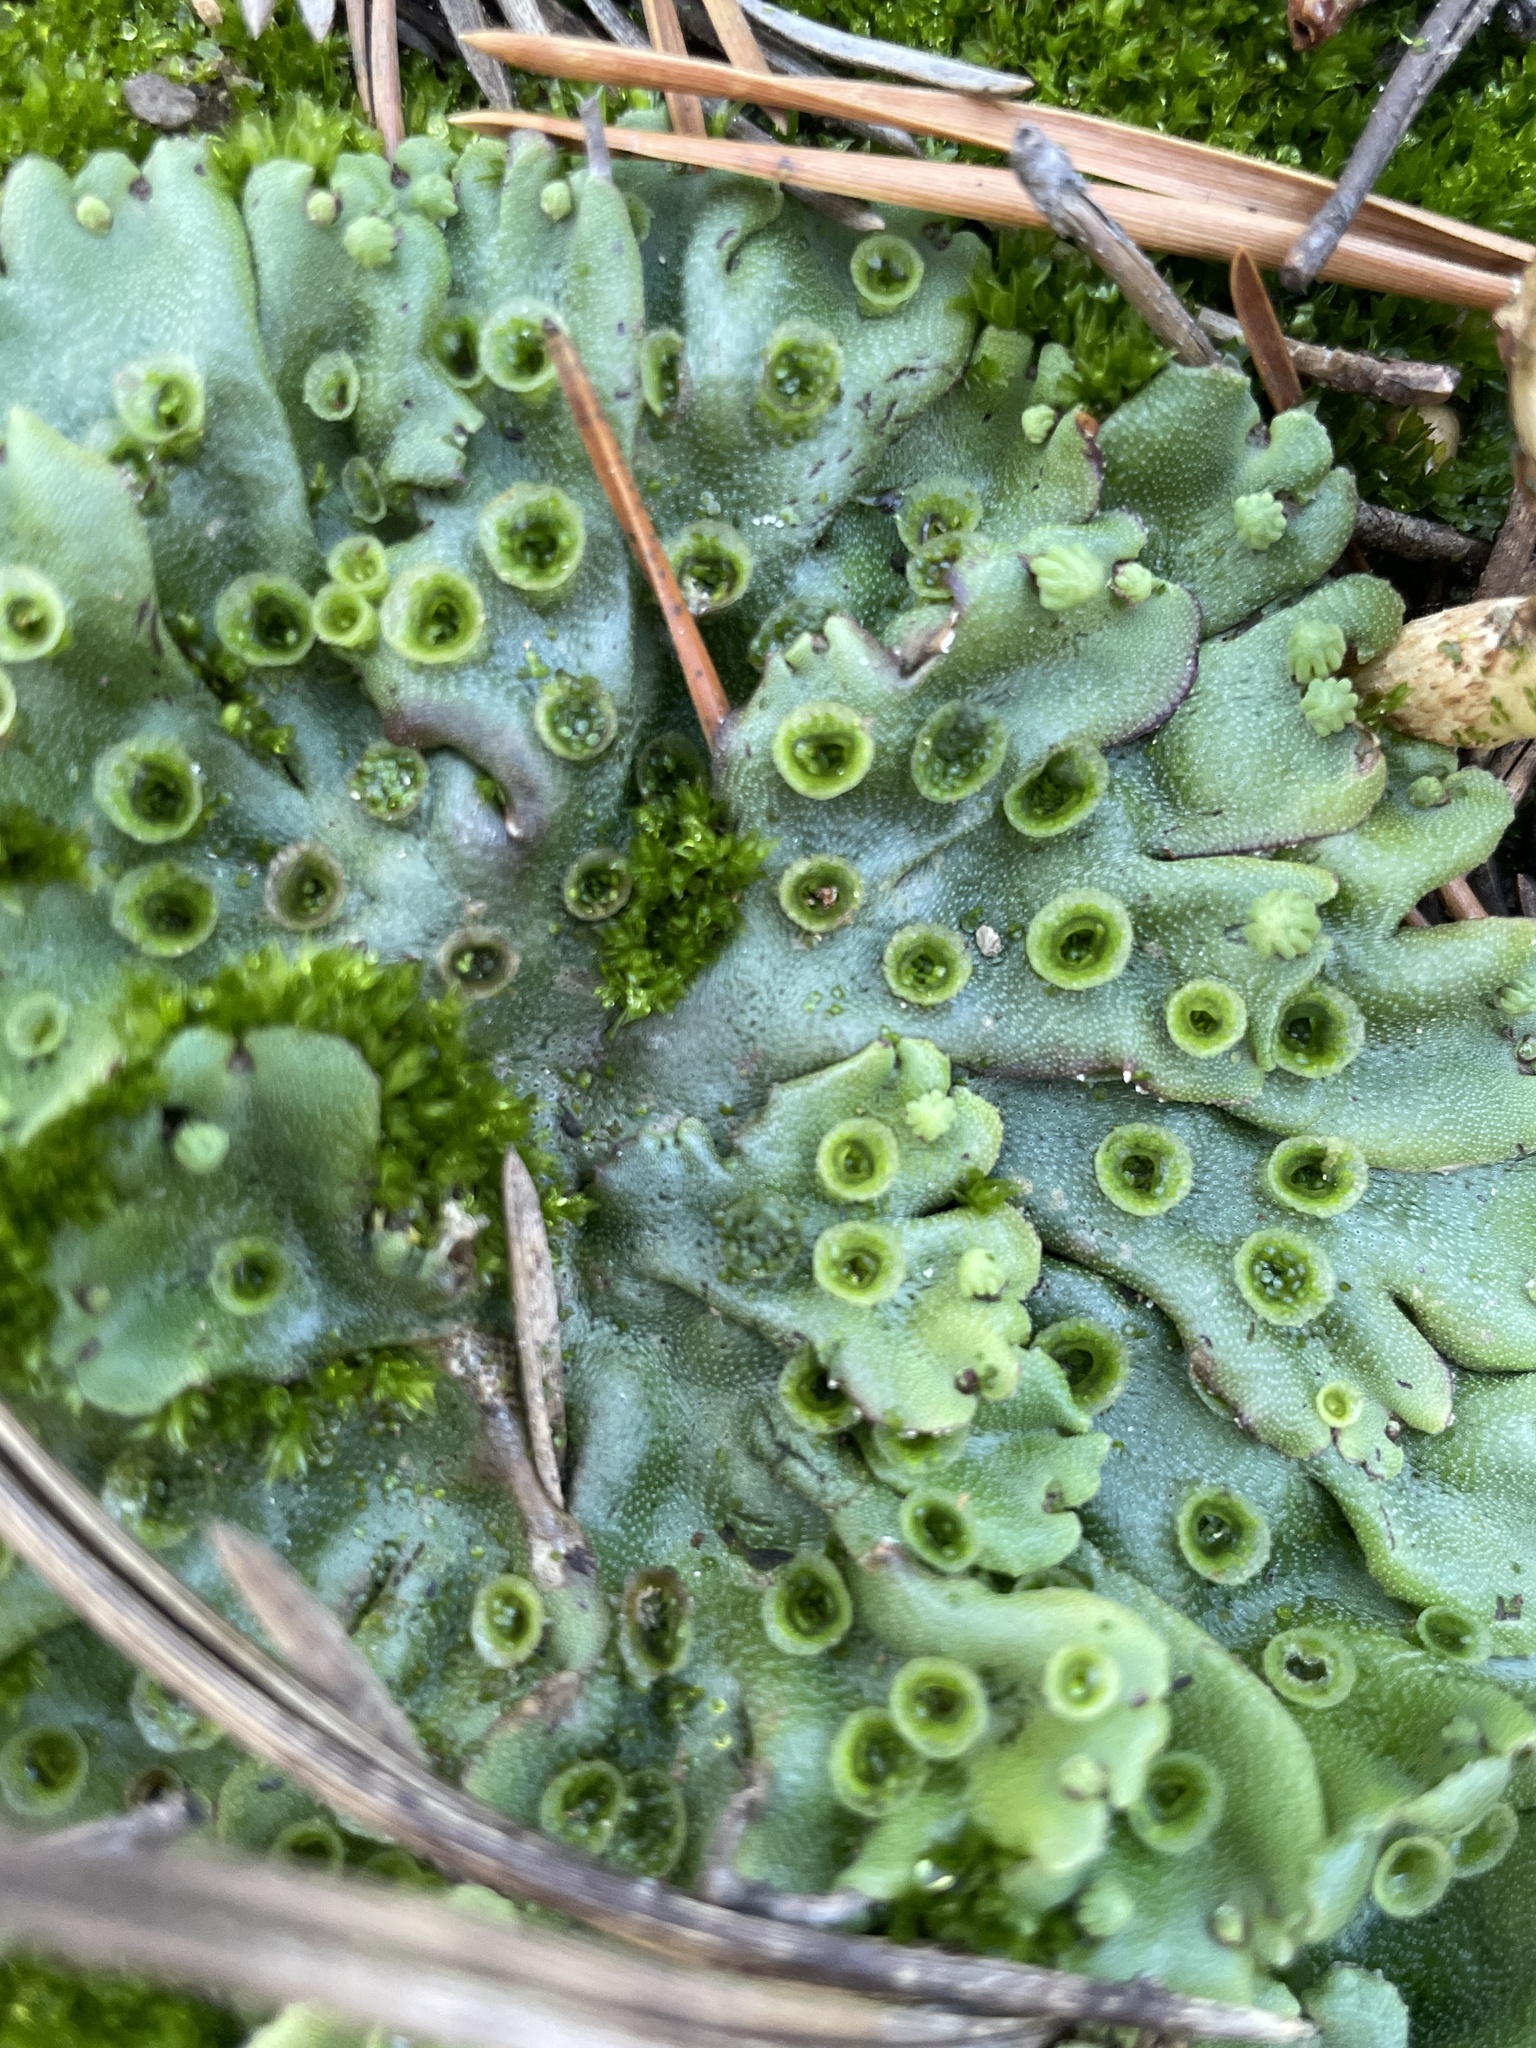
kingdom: Plantae
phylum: Marchantiophyta
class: Marchantiopsida
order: Marchantiales
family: Marchantiaceae
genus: Marchantia
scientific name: Marchantia polymorpha
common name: Common liverwort
